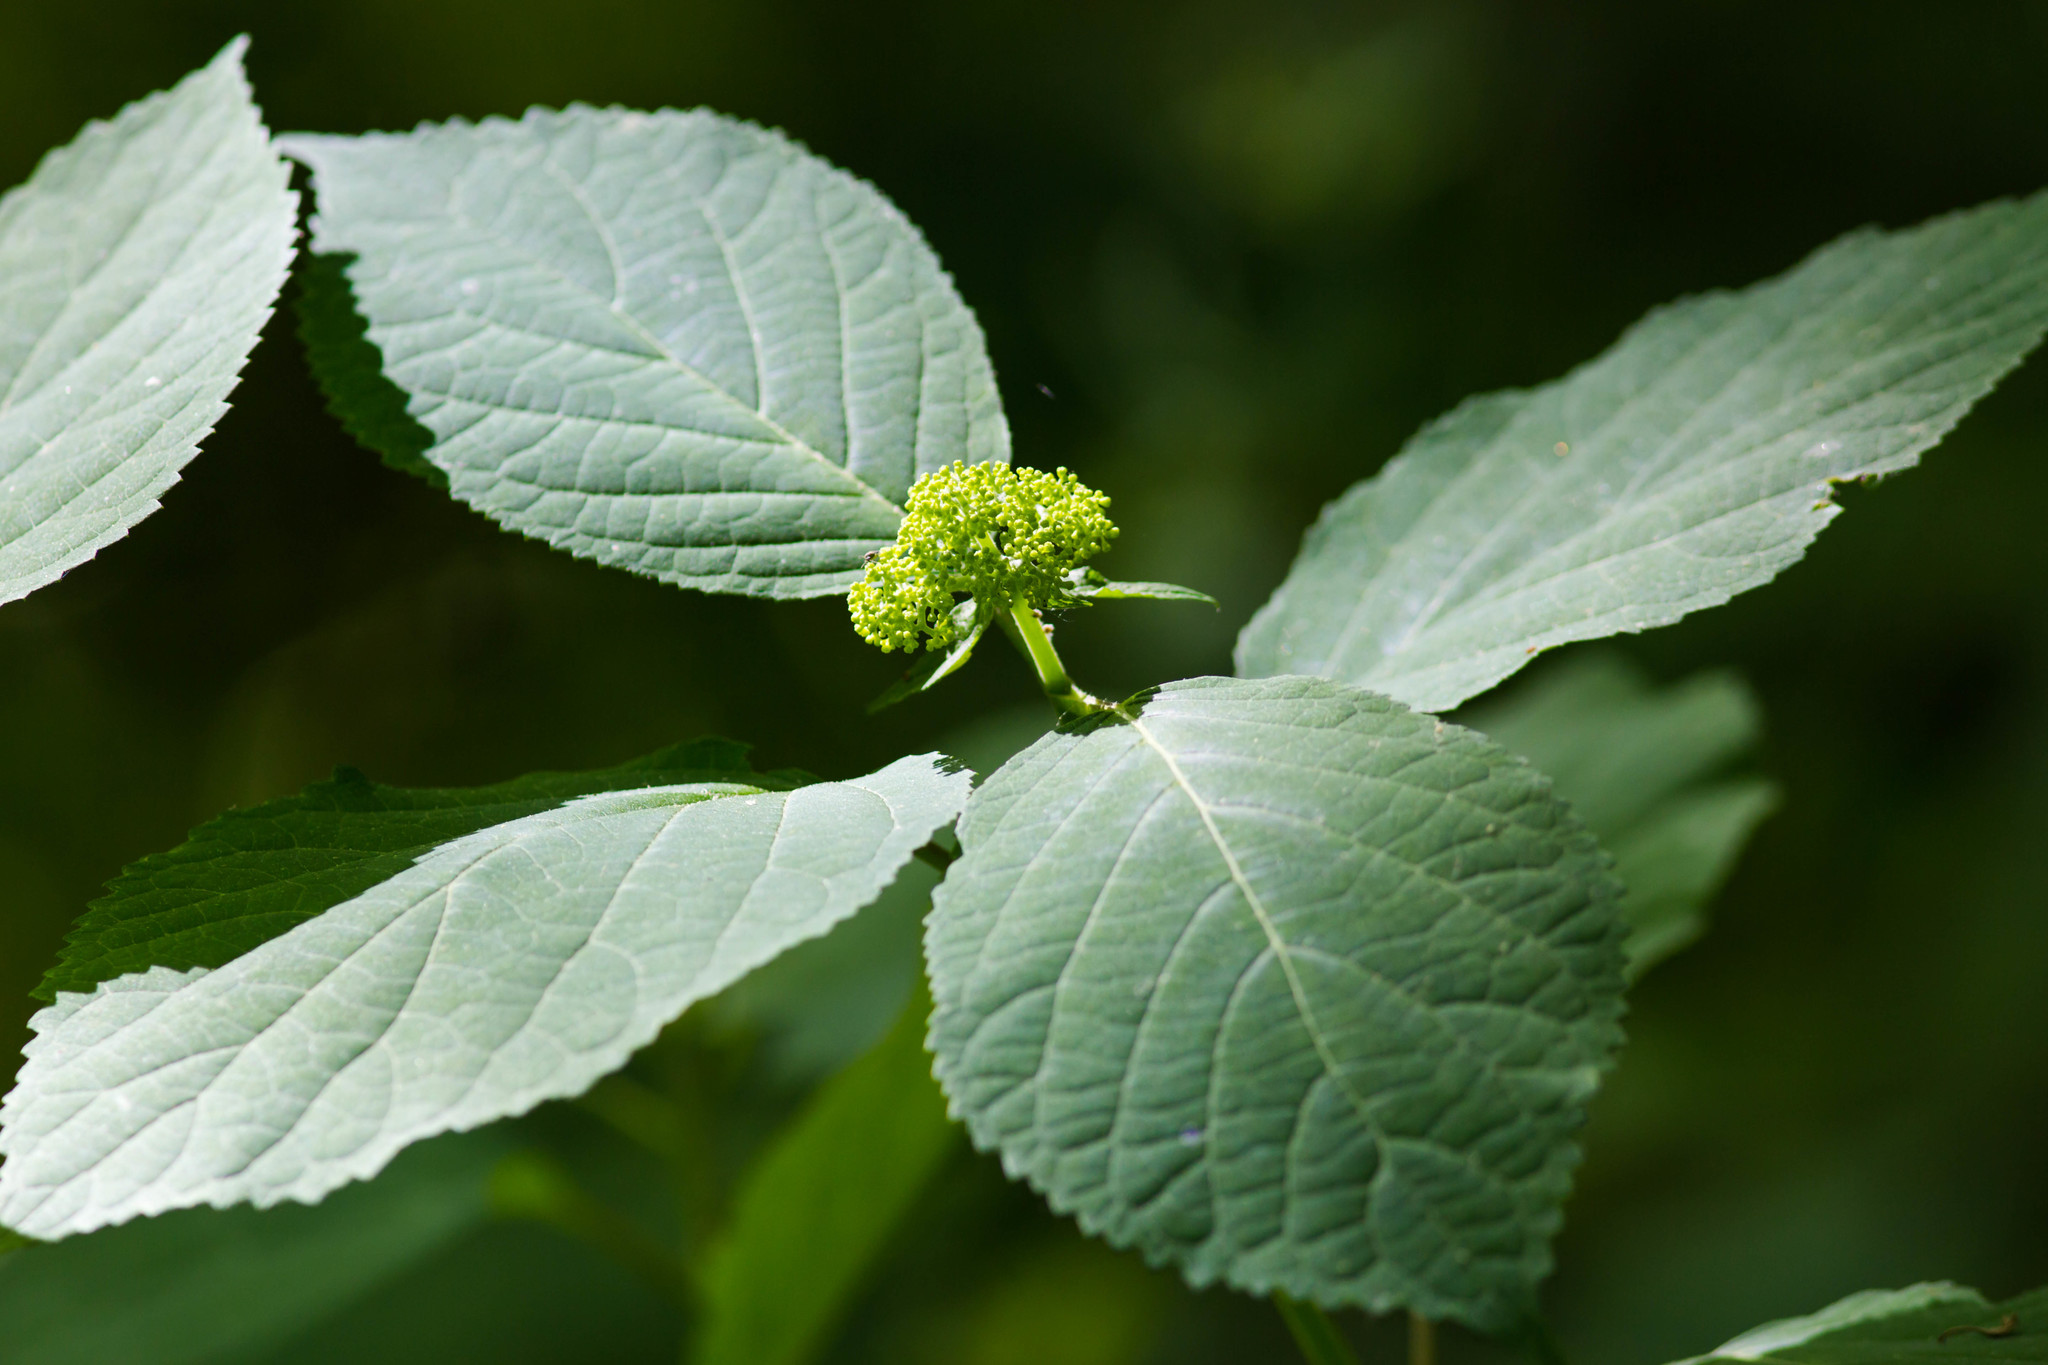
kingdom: Plantae
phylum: Tracheophyta
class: Magnoliopsida
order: Cornales
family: Hydrangeaceae
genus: Hydrangea
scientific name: Hydrangea arborescens
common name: Sevenbark
